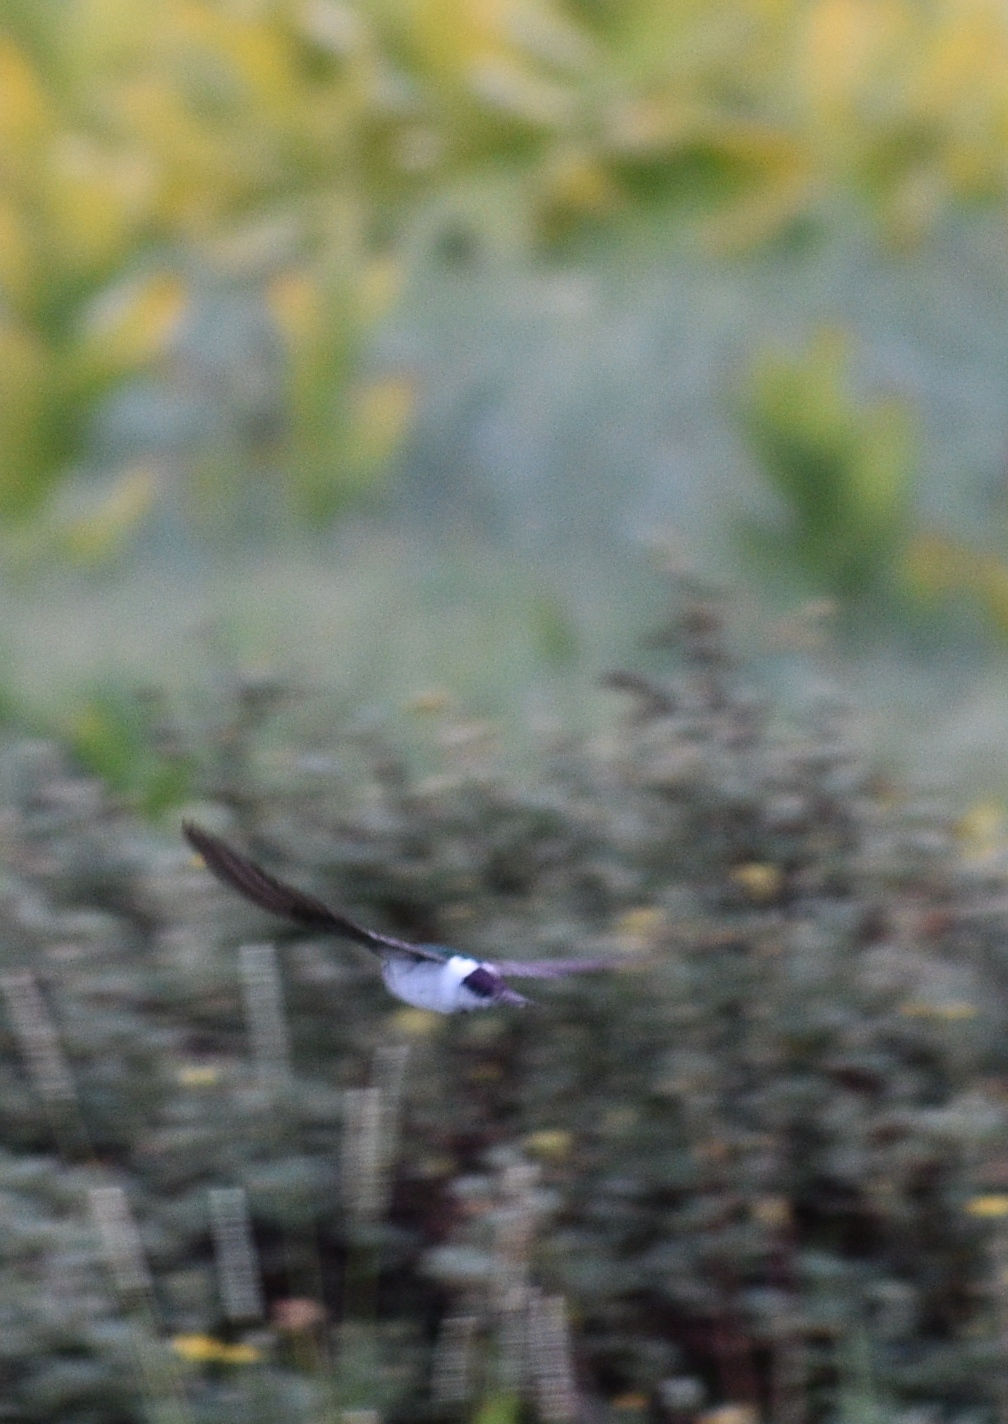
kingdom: Animalia
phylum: Chordata
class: Aves
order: Passeriformes
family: Hirundinidae
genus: Tachycineta
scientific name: Tachycineta thalassina
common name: Violet-green swallow
